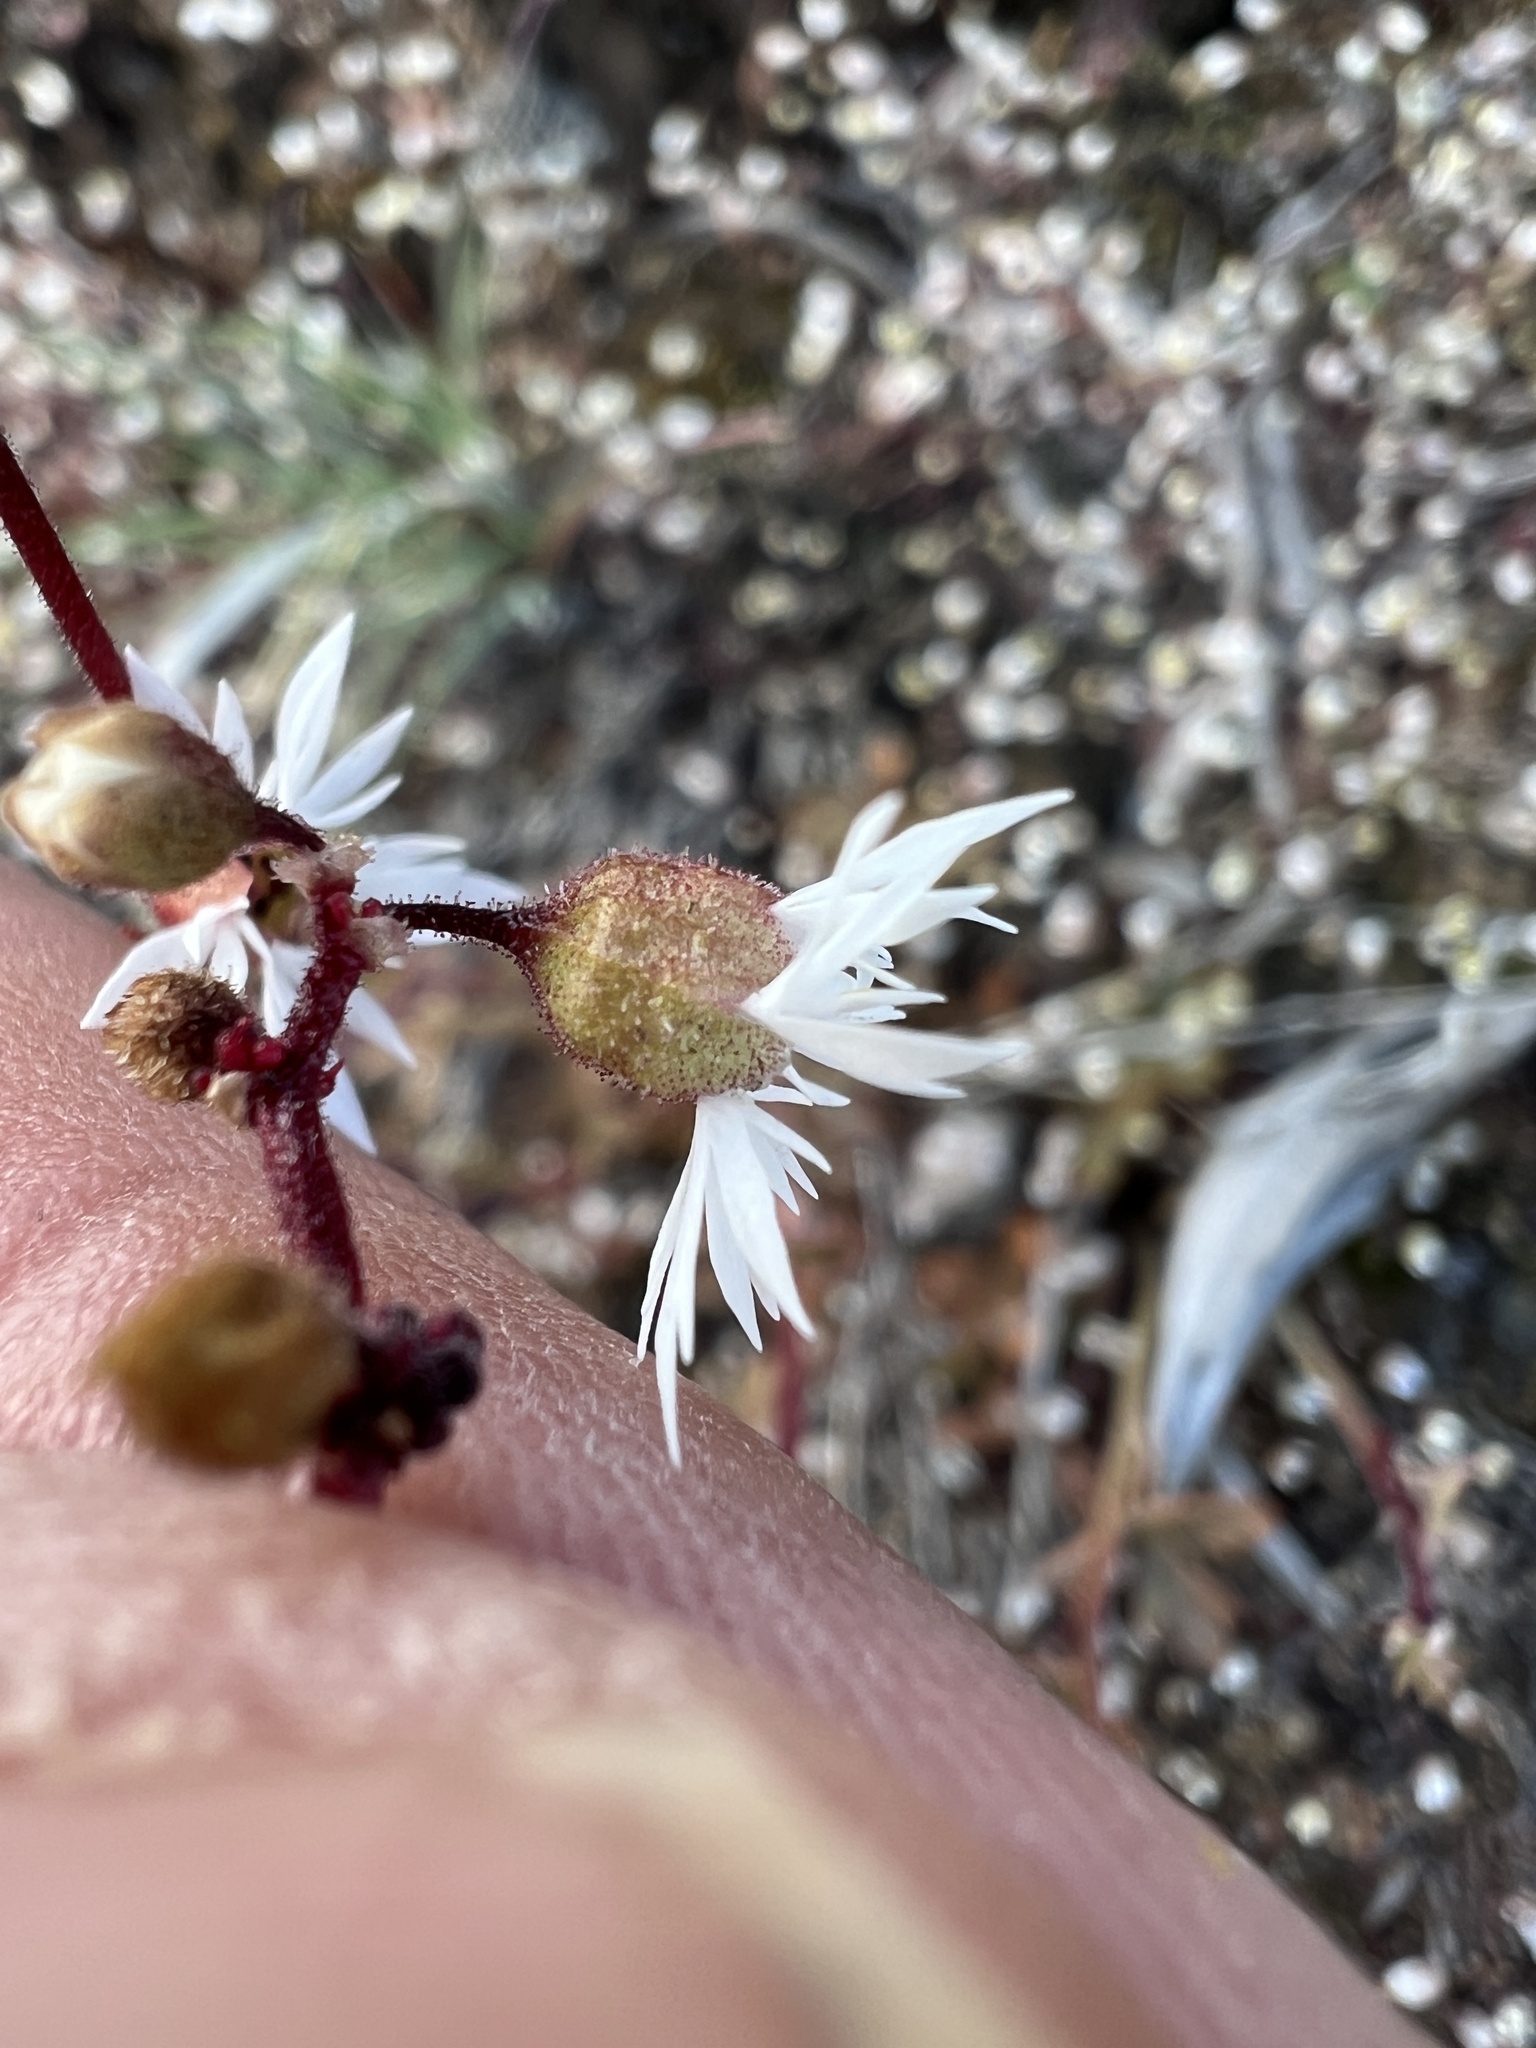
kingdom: Plantae
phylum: Tracheophyta
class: Magnoliopsida
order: Saxifragales
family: Saxifragaceae
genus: Lithophragma
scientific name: Lithophragma glabrum
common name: Bulbous prairie-star
